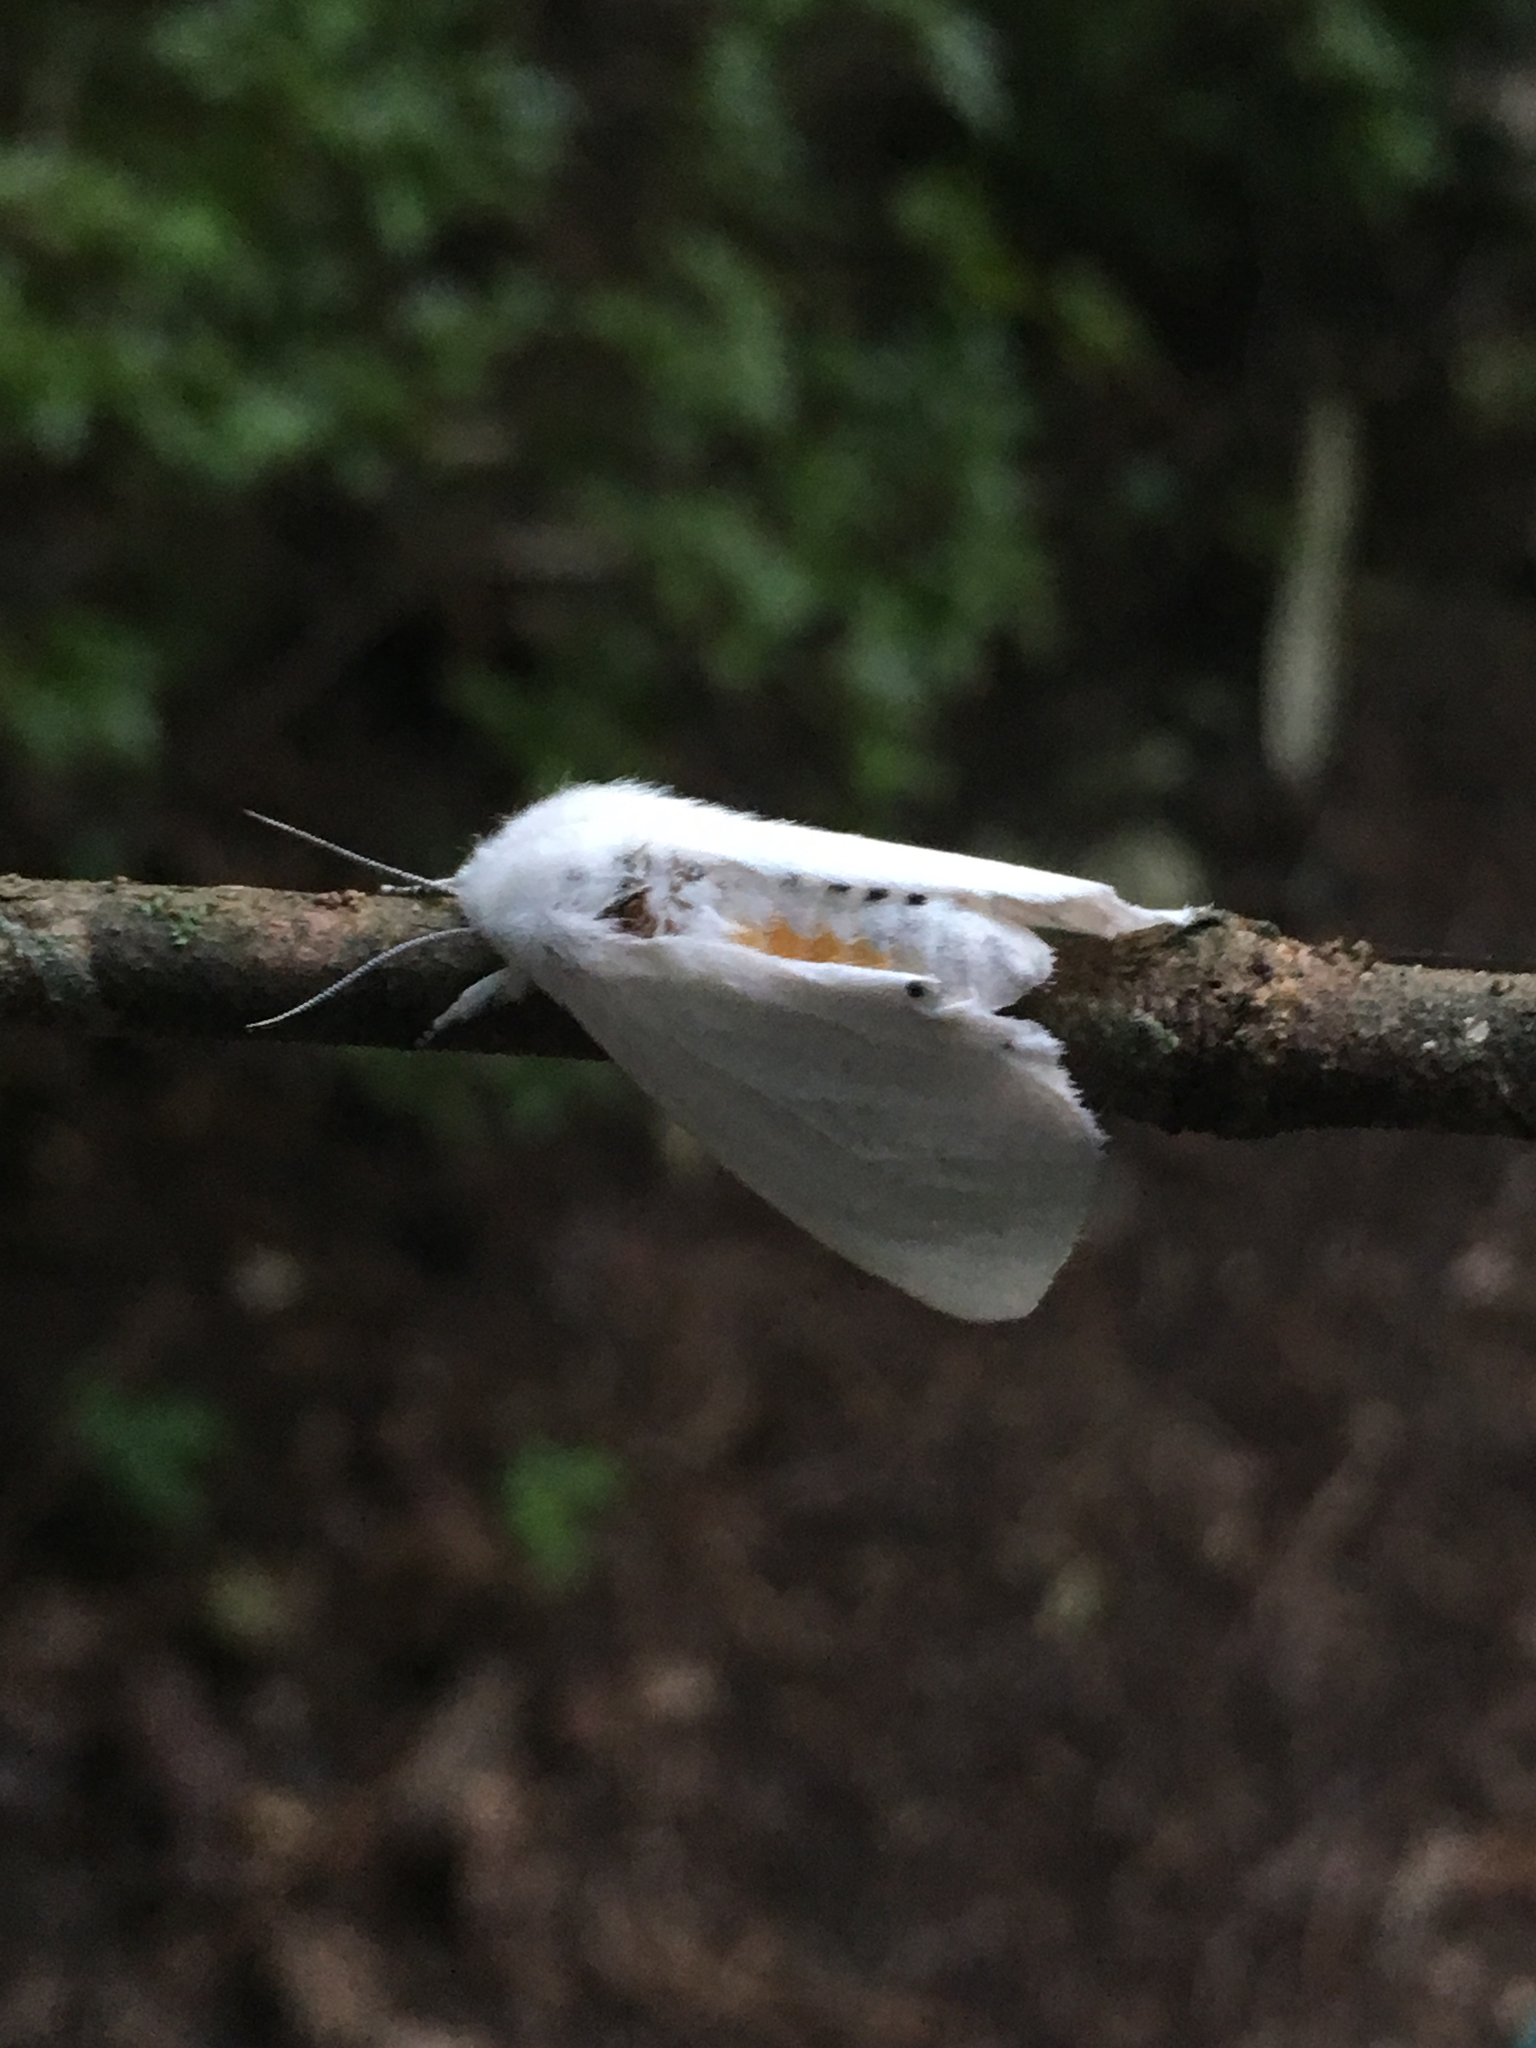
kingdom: Animalia
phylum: Arthropoda
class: Insecta
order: Lepidoptera
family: Erebidae
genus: Spilosoma
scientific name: Spilosoma virginica
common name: Virginia tiger moth
